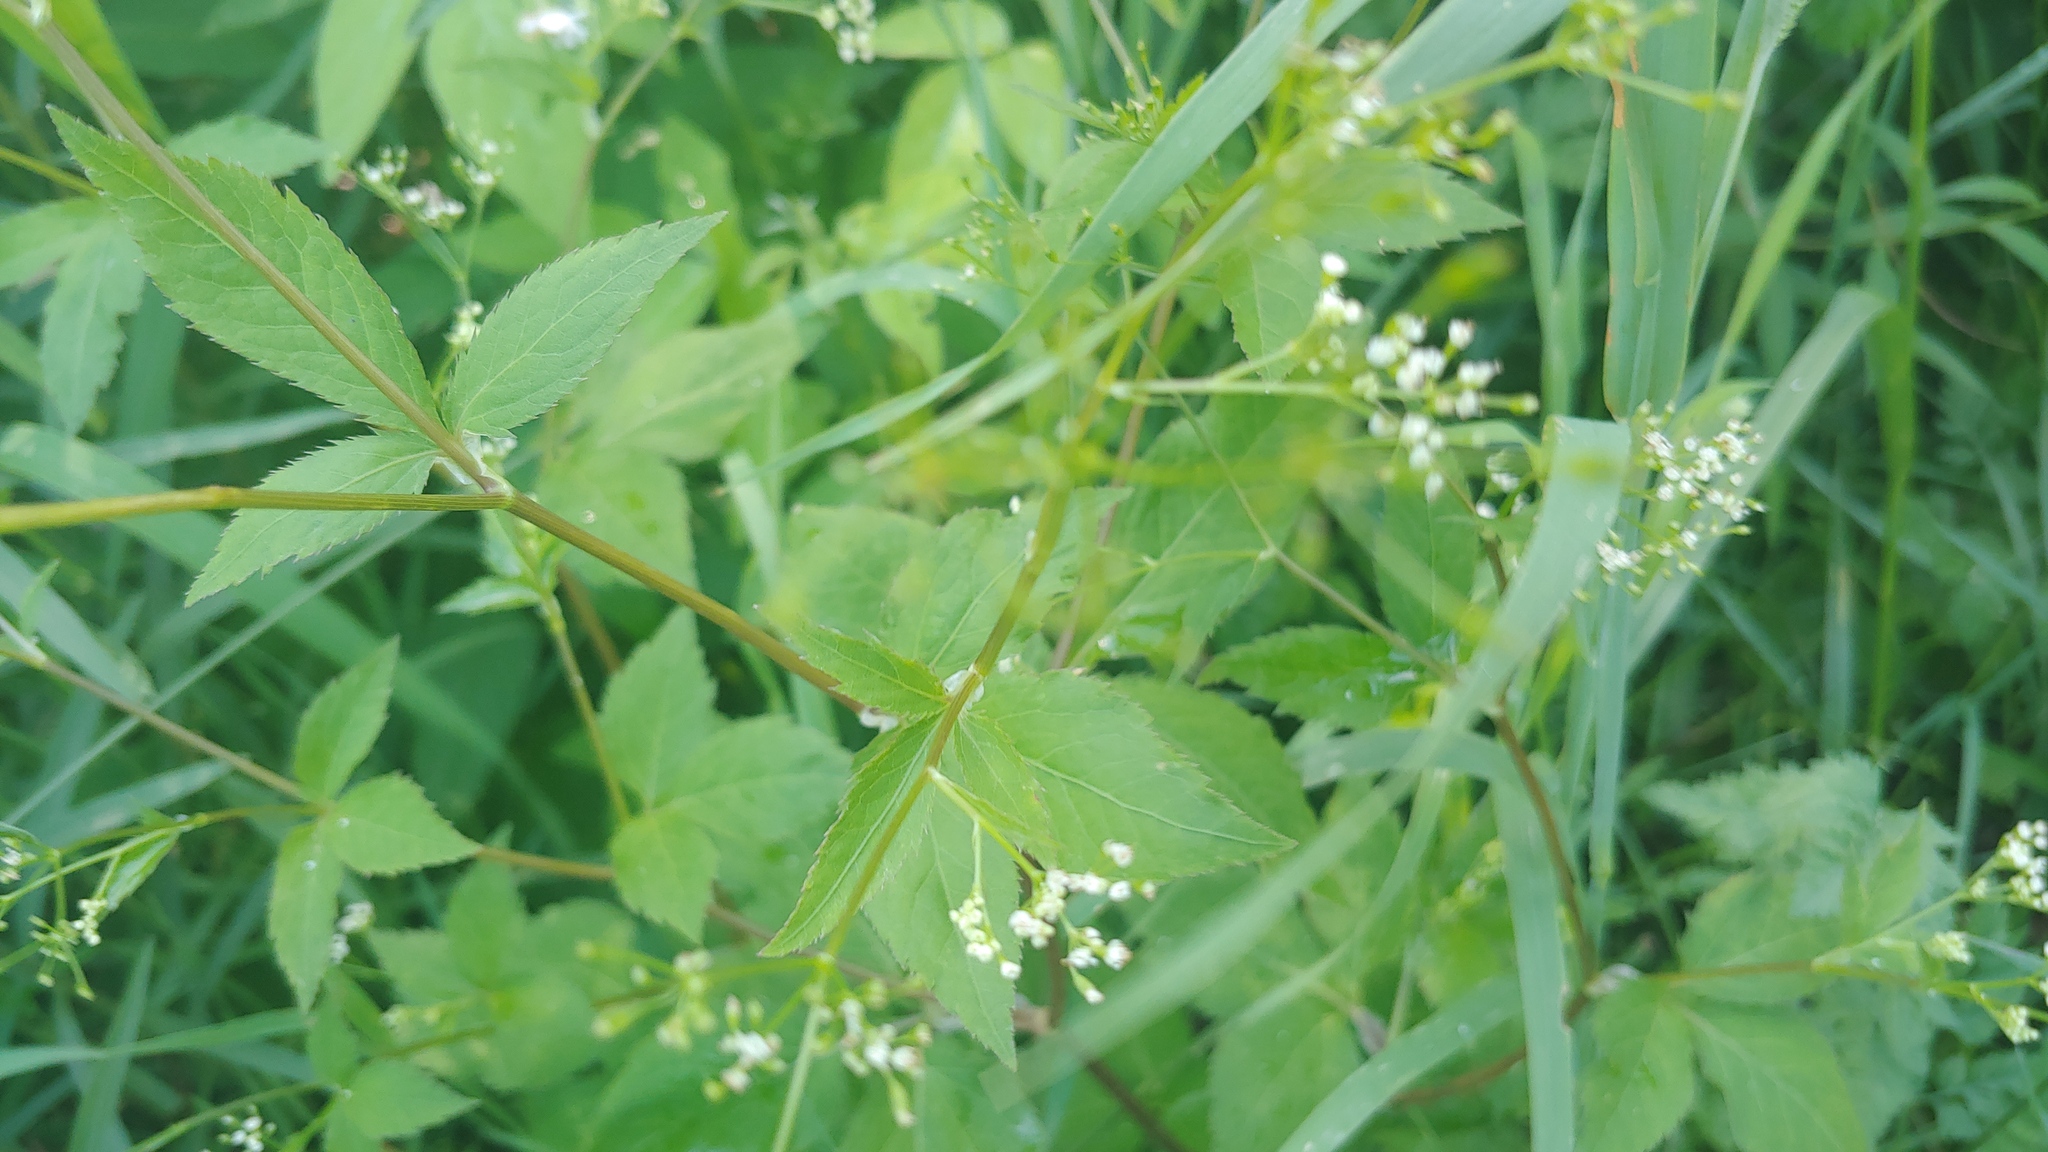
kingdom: Plantae
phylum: Tracheophyta
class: Magnoliopsida
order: Apiales
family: Apiaceae
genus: Cryptotaenia
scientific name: Cryptotaenia canadensis
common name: Honewort
